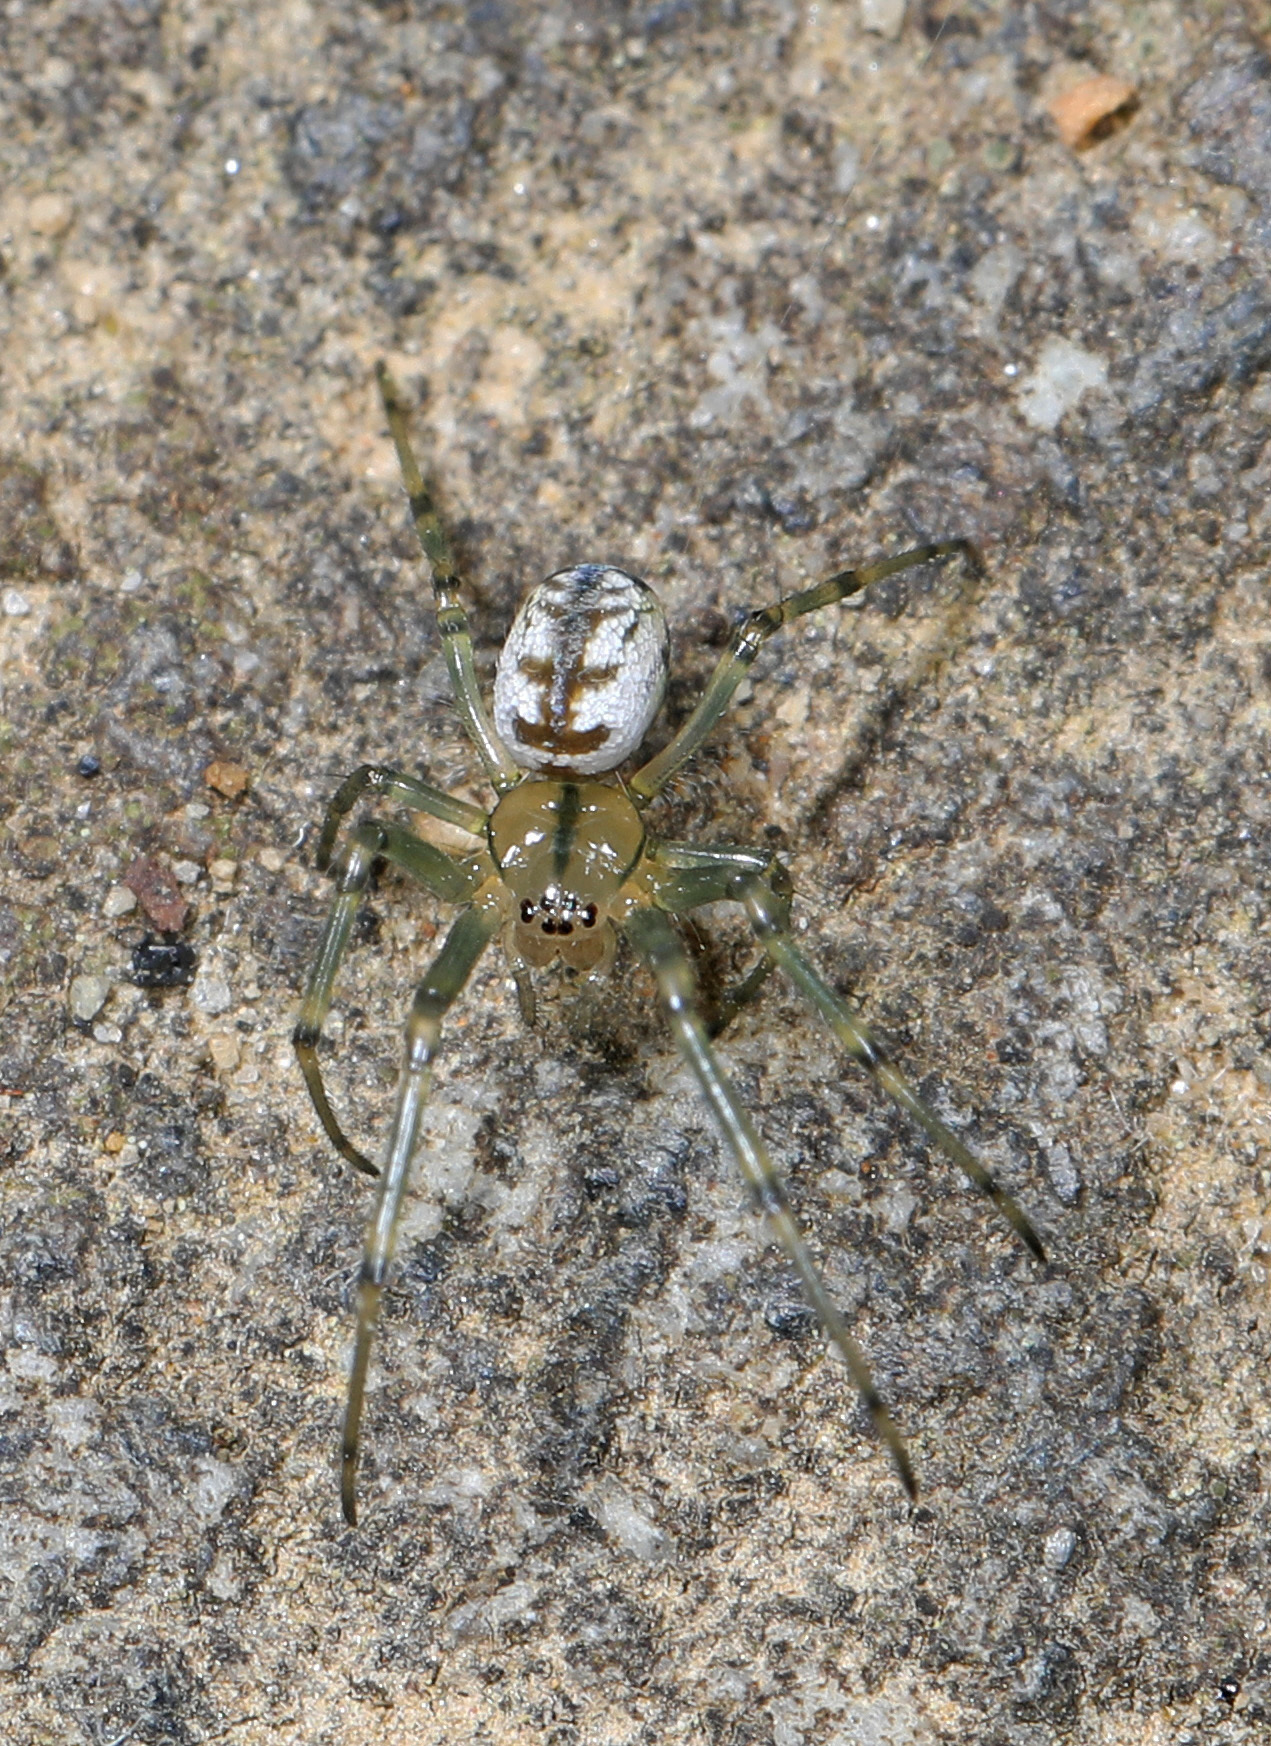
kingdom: Animalia
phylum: Arthropoda
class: Arachnida
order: Araneae
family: Tetragnathidae
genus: Leucauge
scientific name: Leucauge venusta
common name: Longjawed orb weavers
